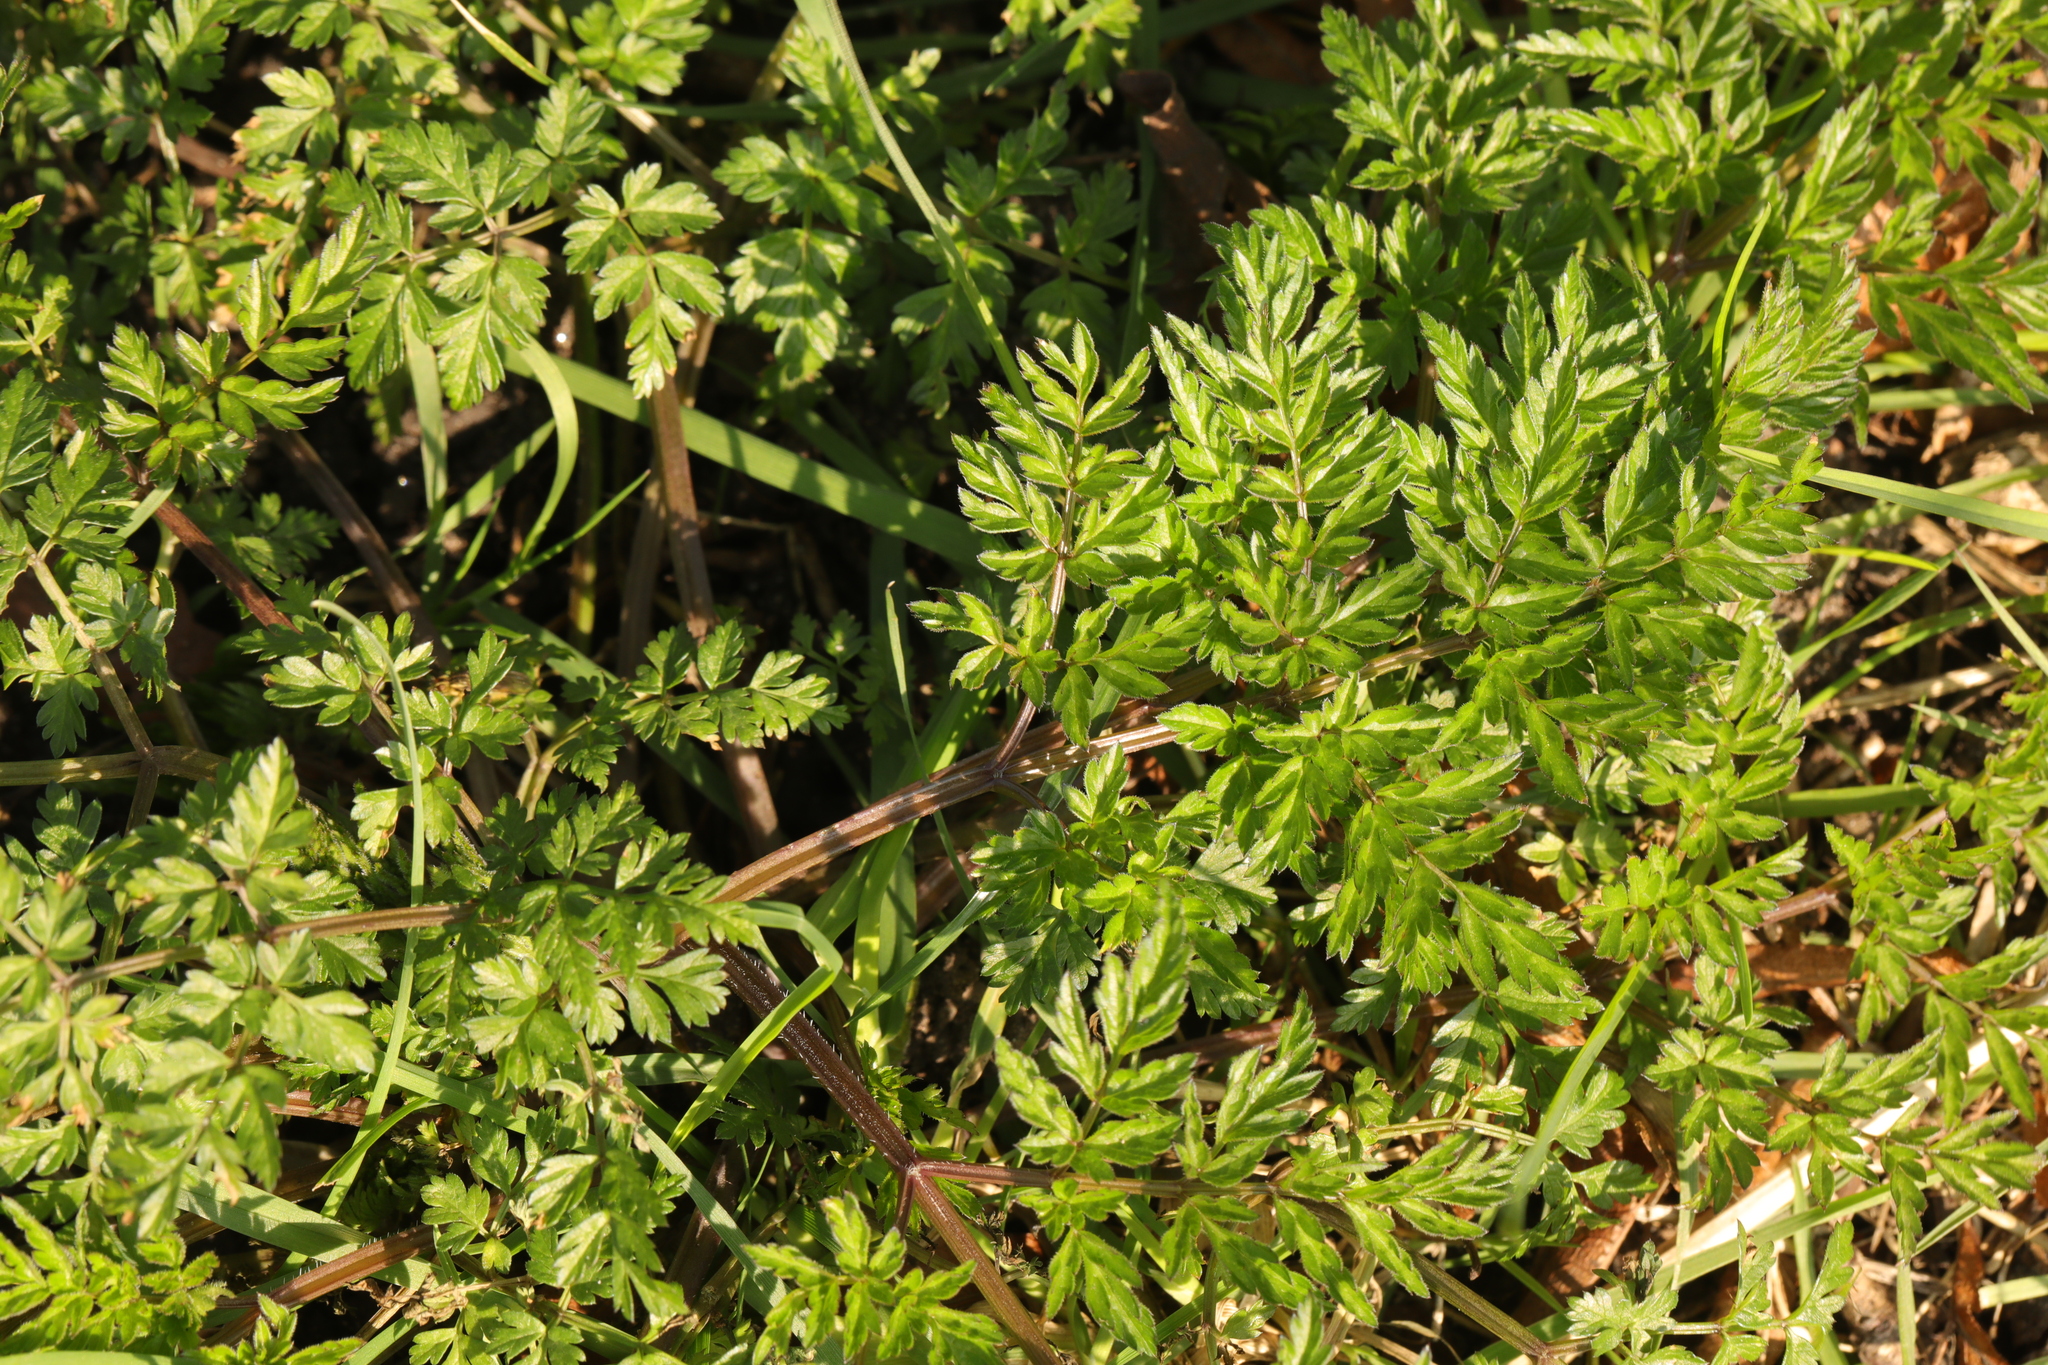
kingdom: Plantae
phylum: Tracheophyta
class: Magnoliopsida
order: Apiales
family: Apiaceae
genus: Anthriscus
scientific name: Anthriscus sylvestris
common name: Cow parsley
